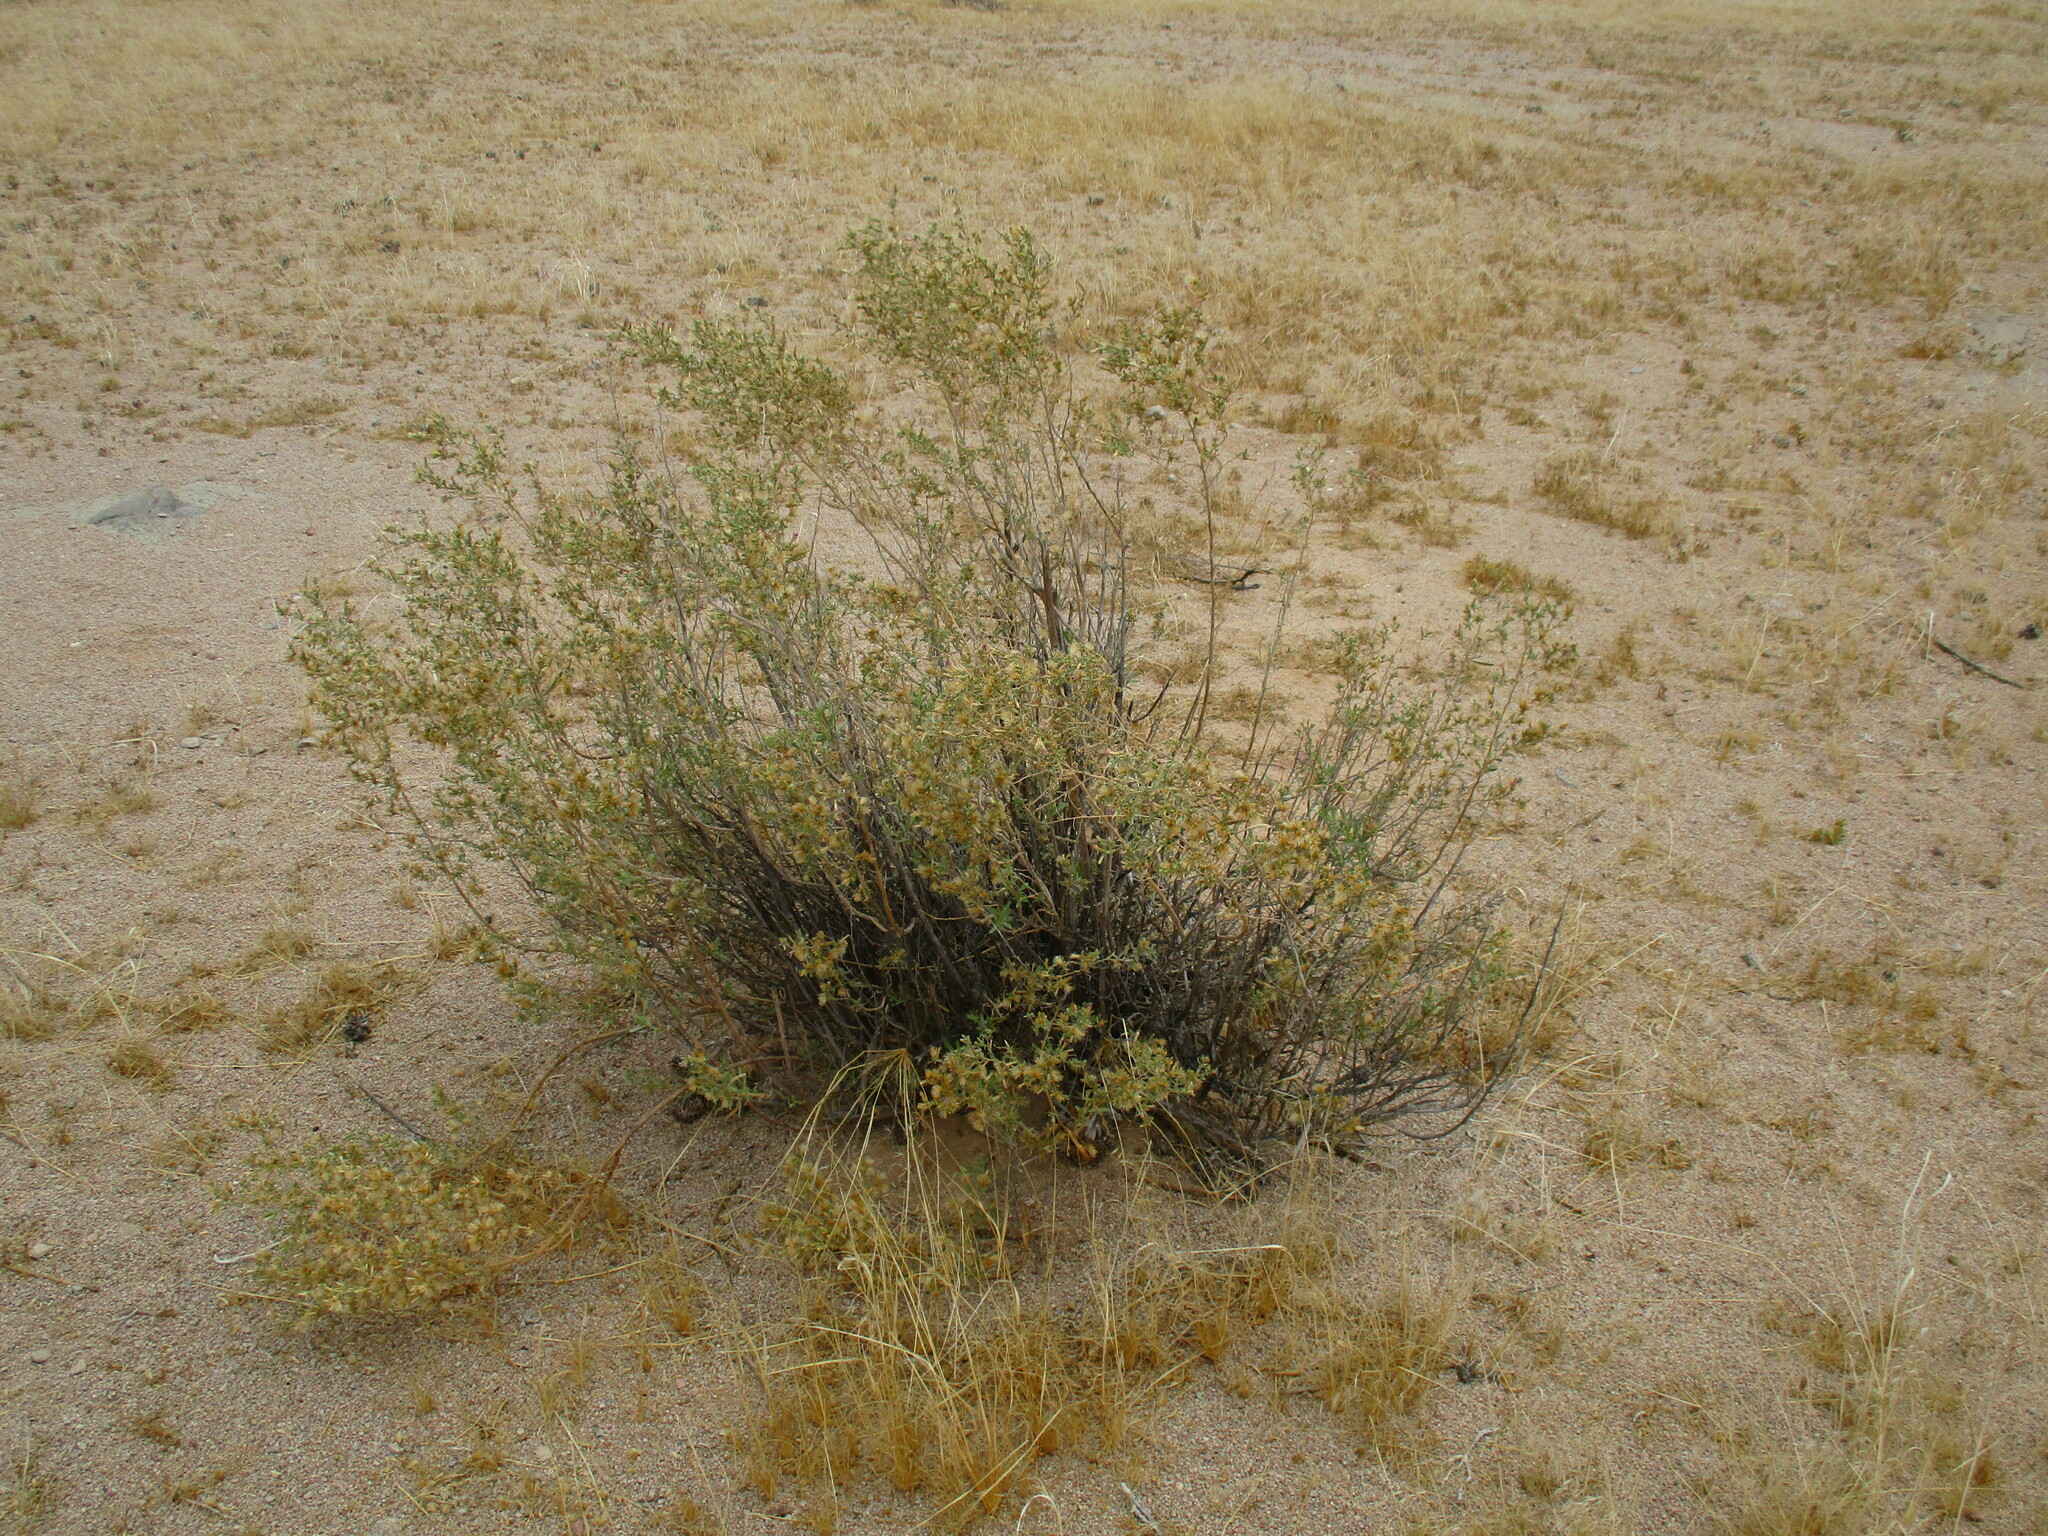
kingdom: Plantae
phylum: Tracheophyta
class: Magnoliopsida
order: Asterales
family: Asteraceae
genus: Pechuel-loeschea
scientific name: Pechuel-loeschea leubnitziae
